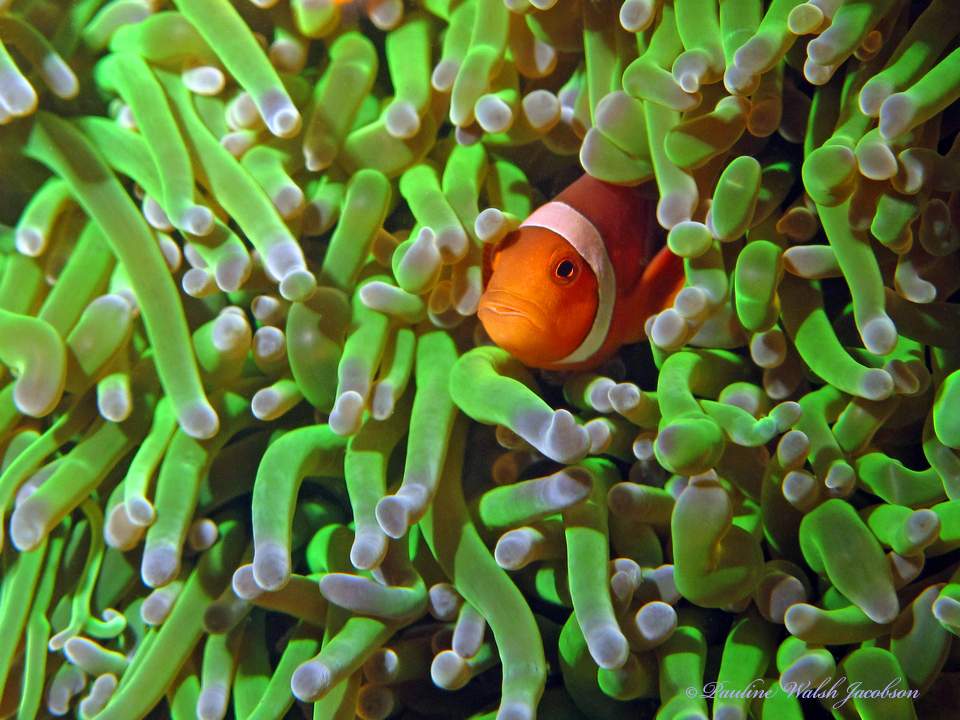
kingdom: Animalia
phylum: Chordata
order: Perciformes
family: Pomacentridae
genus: Amphiprion
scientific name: Amphiprion ocellaris
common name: Clown anemonefish
